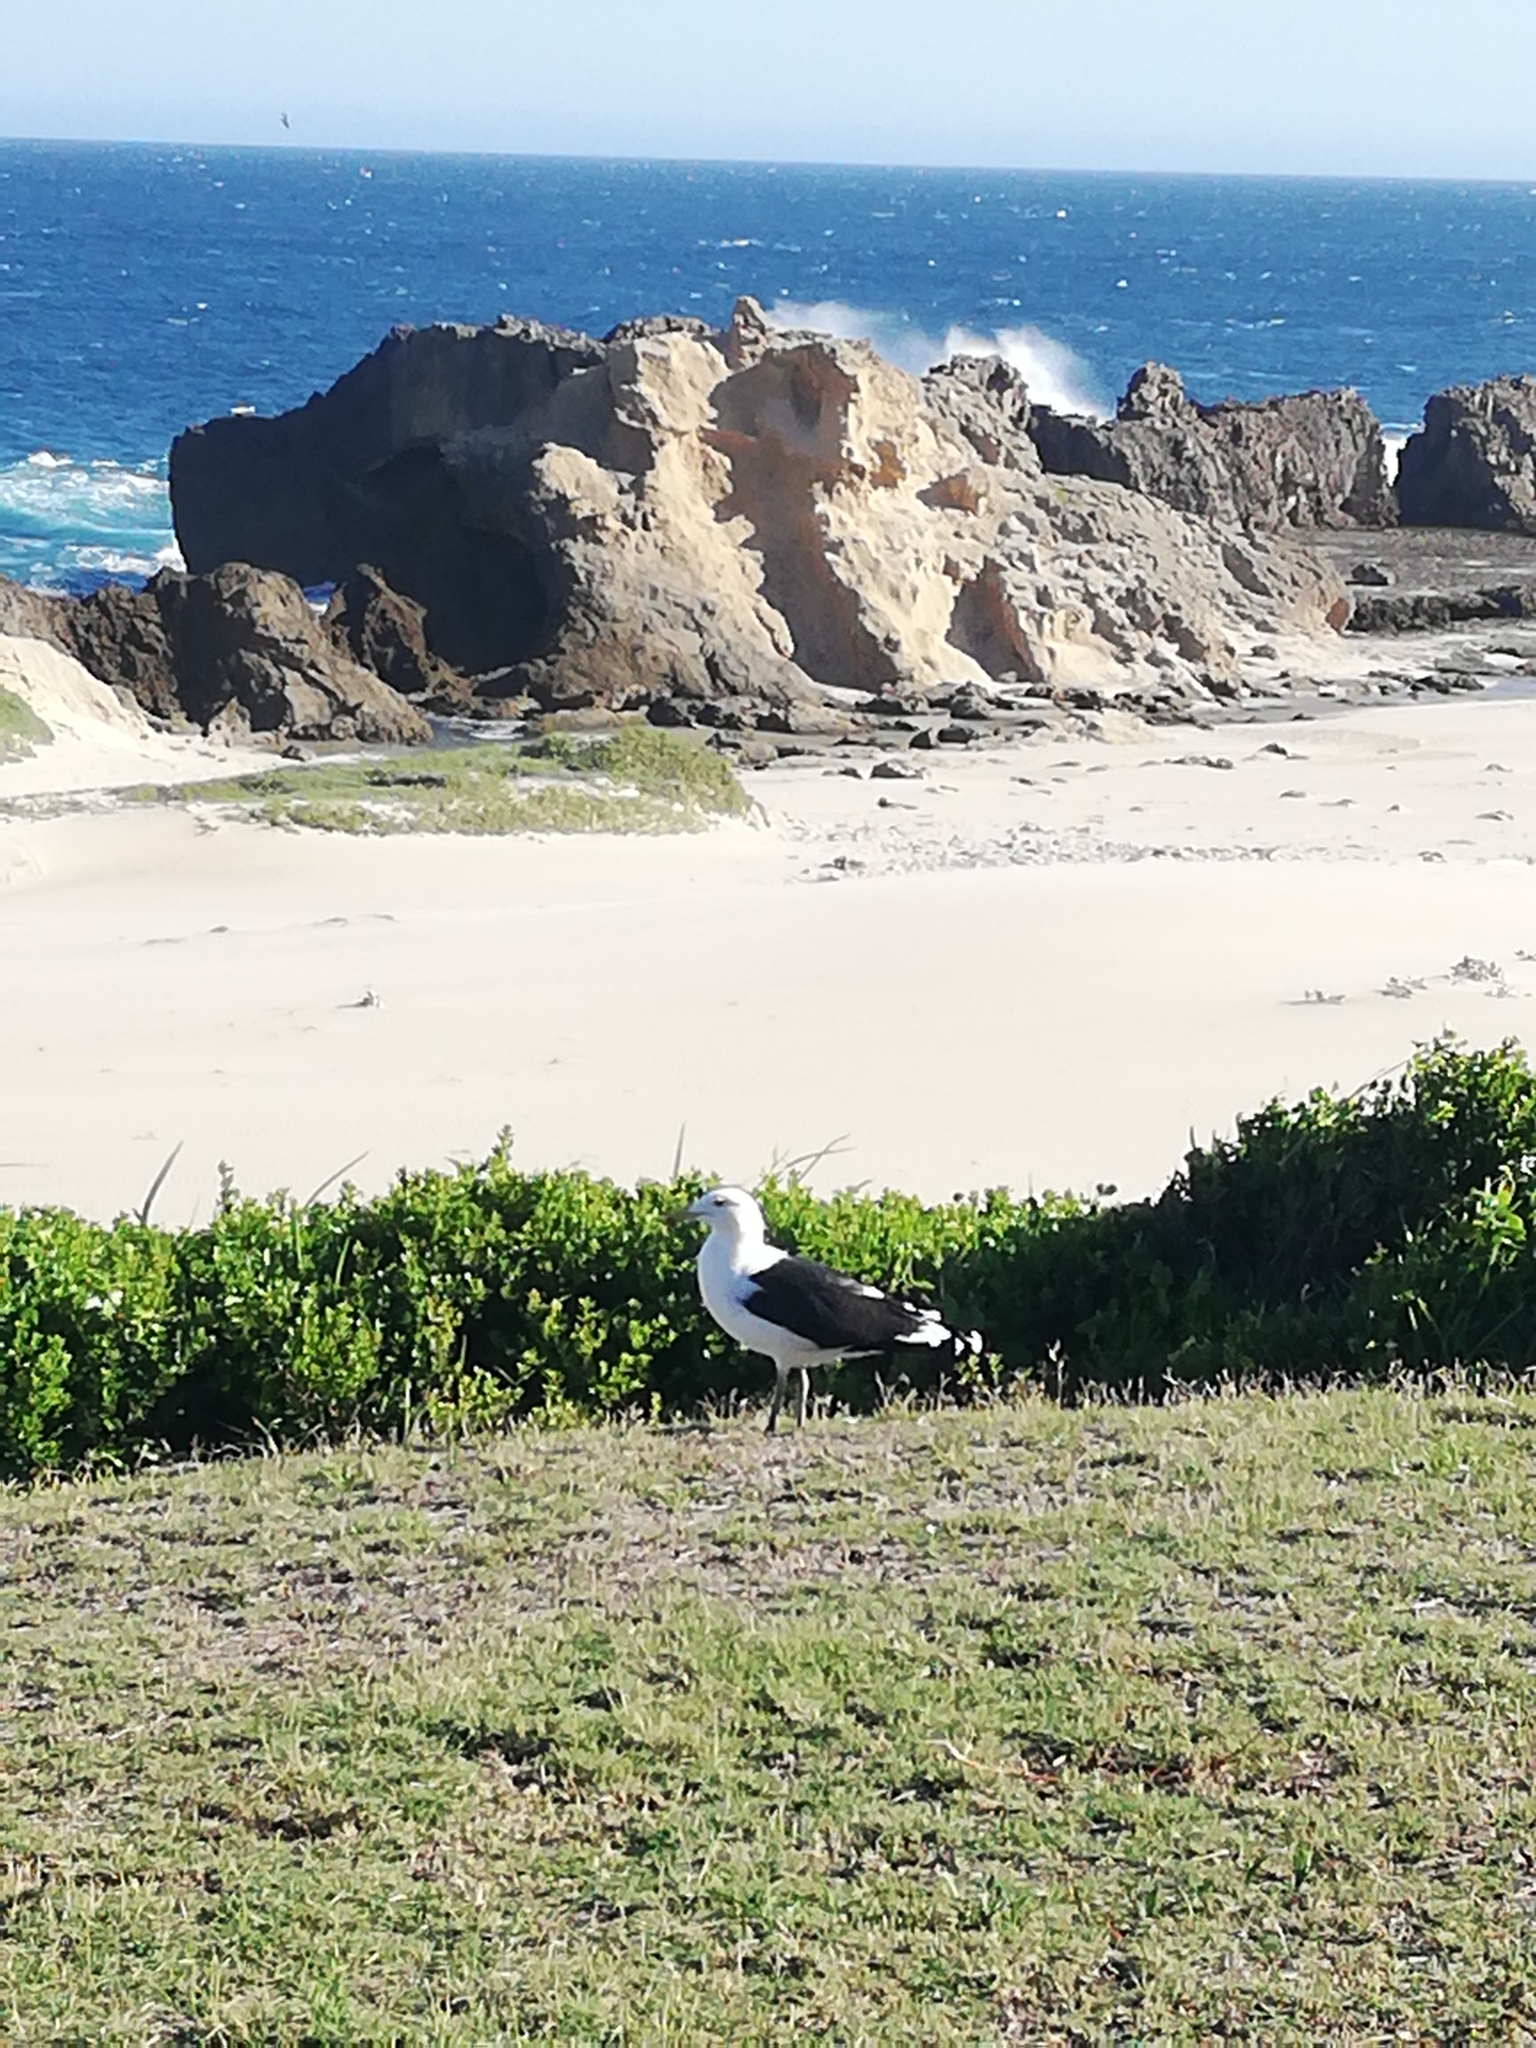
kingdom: Animalia
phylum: Chordata
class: Aves
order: Charadriiformes
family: Laridae
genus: Larus
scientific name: Larus dominicanus
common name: Kelp gull
